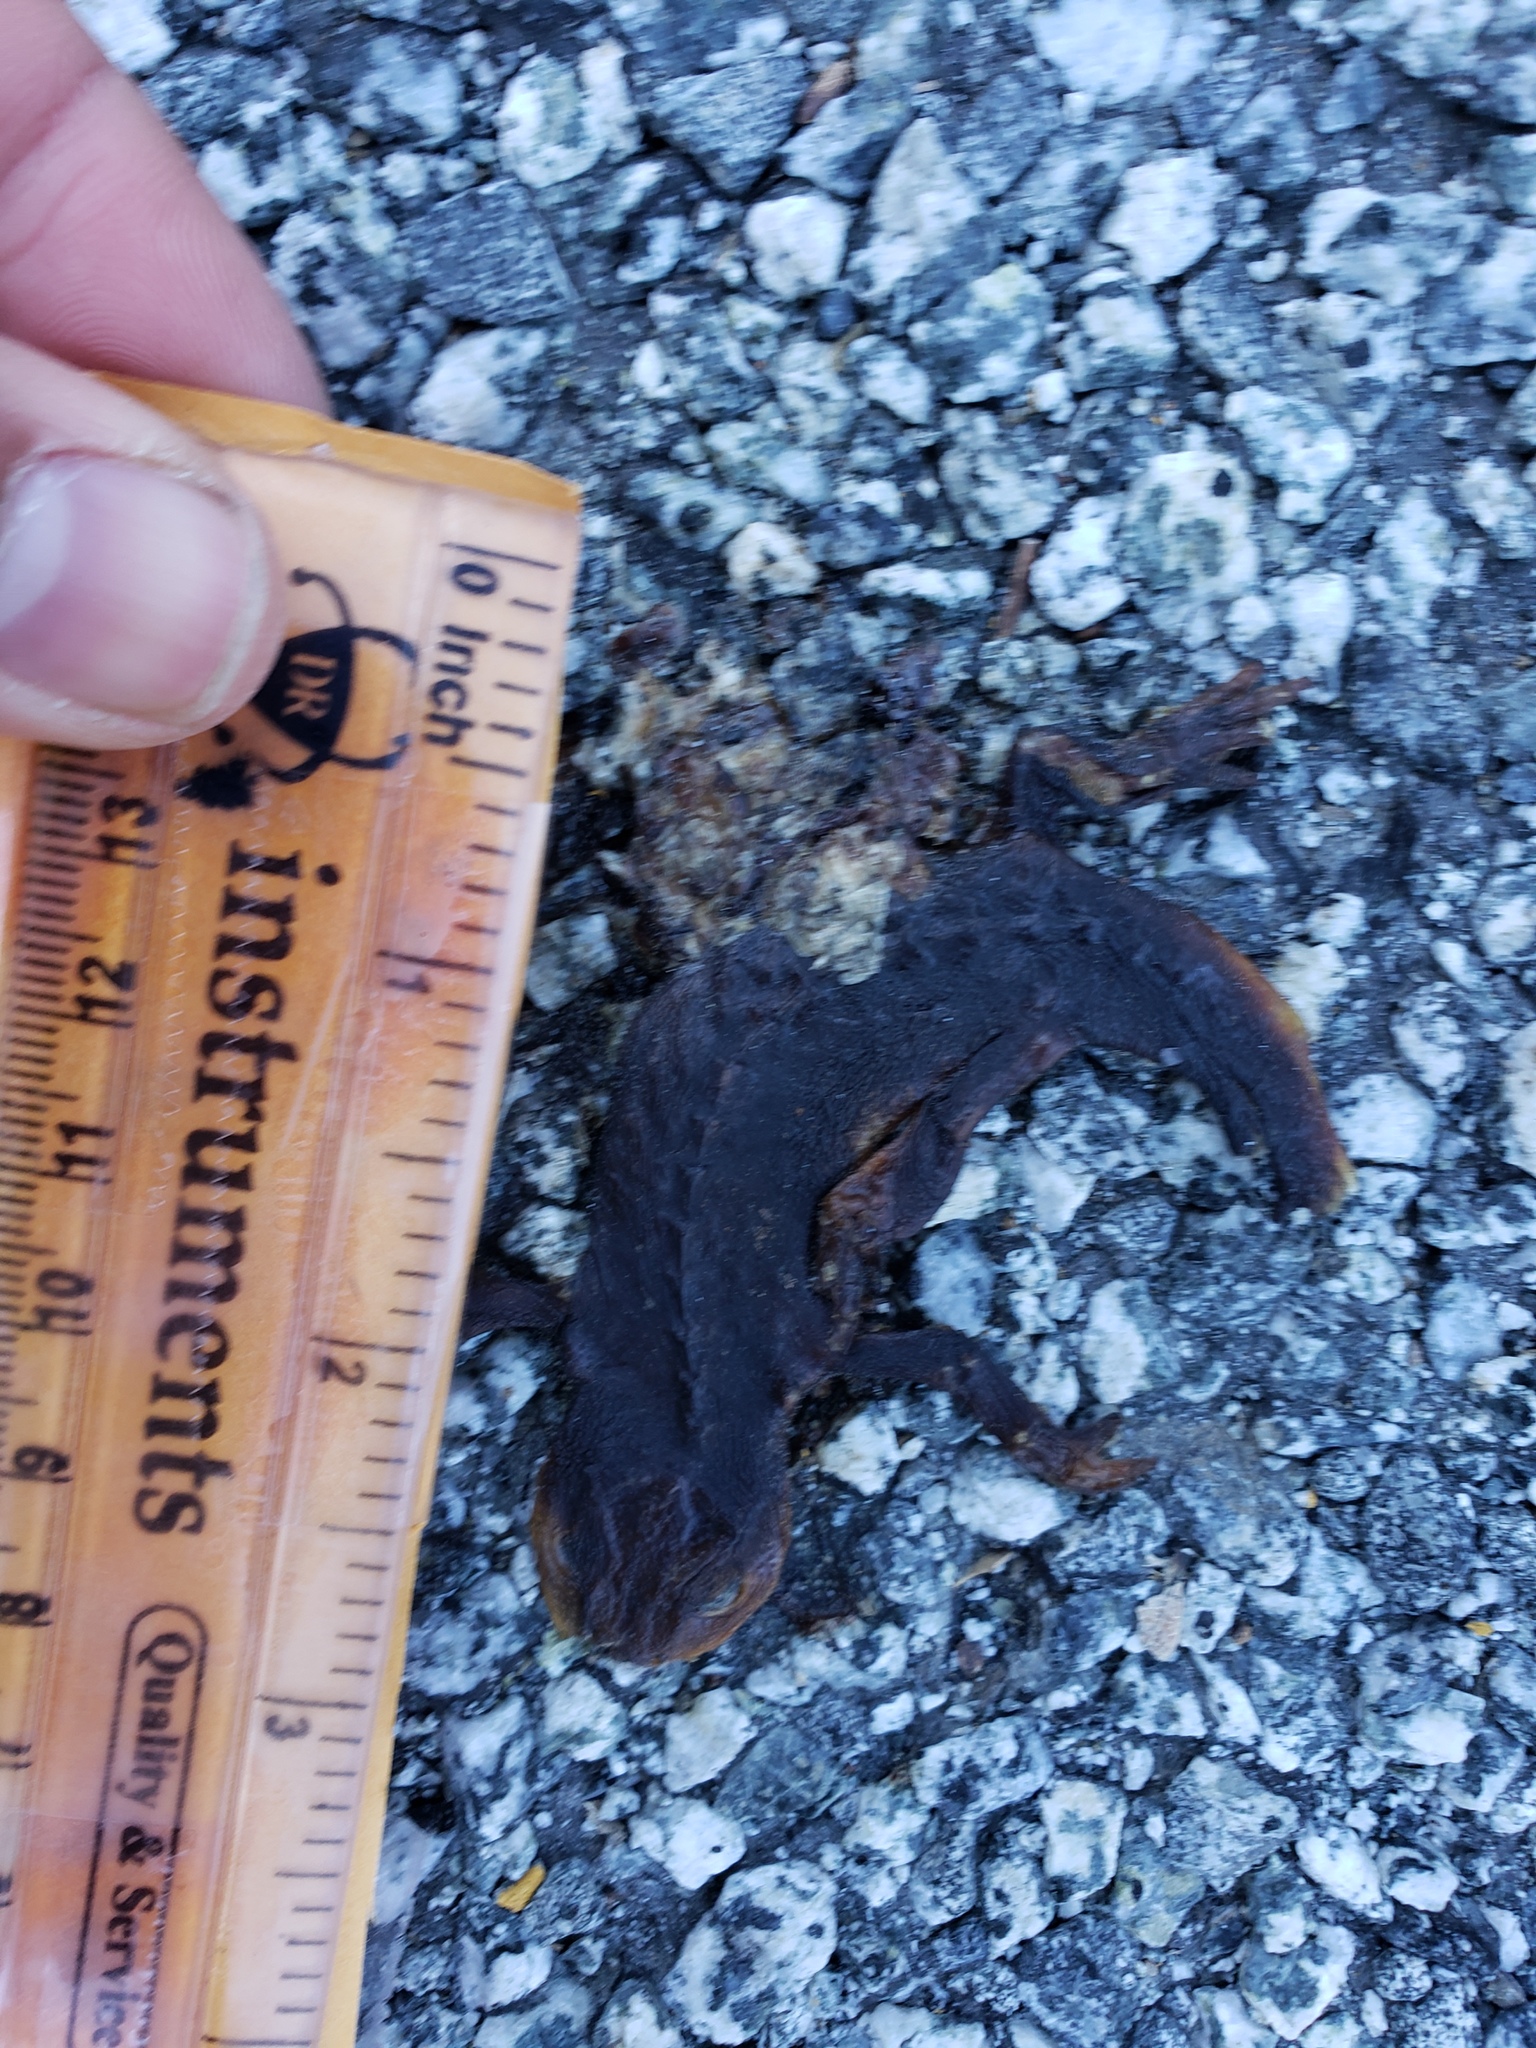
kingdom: Animalia
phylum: Chordata
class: Amphibia
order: Caudata
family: Salamandridae
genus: Taricha
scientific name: Taricha
